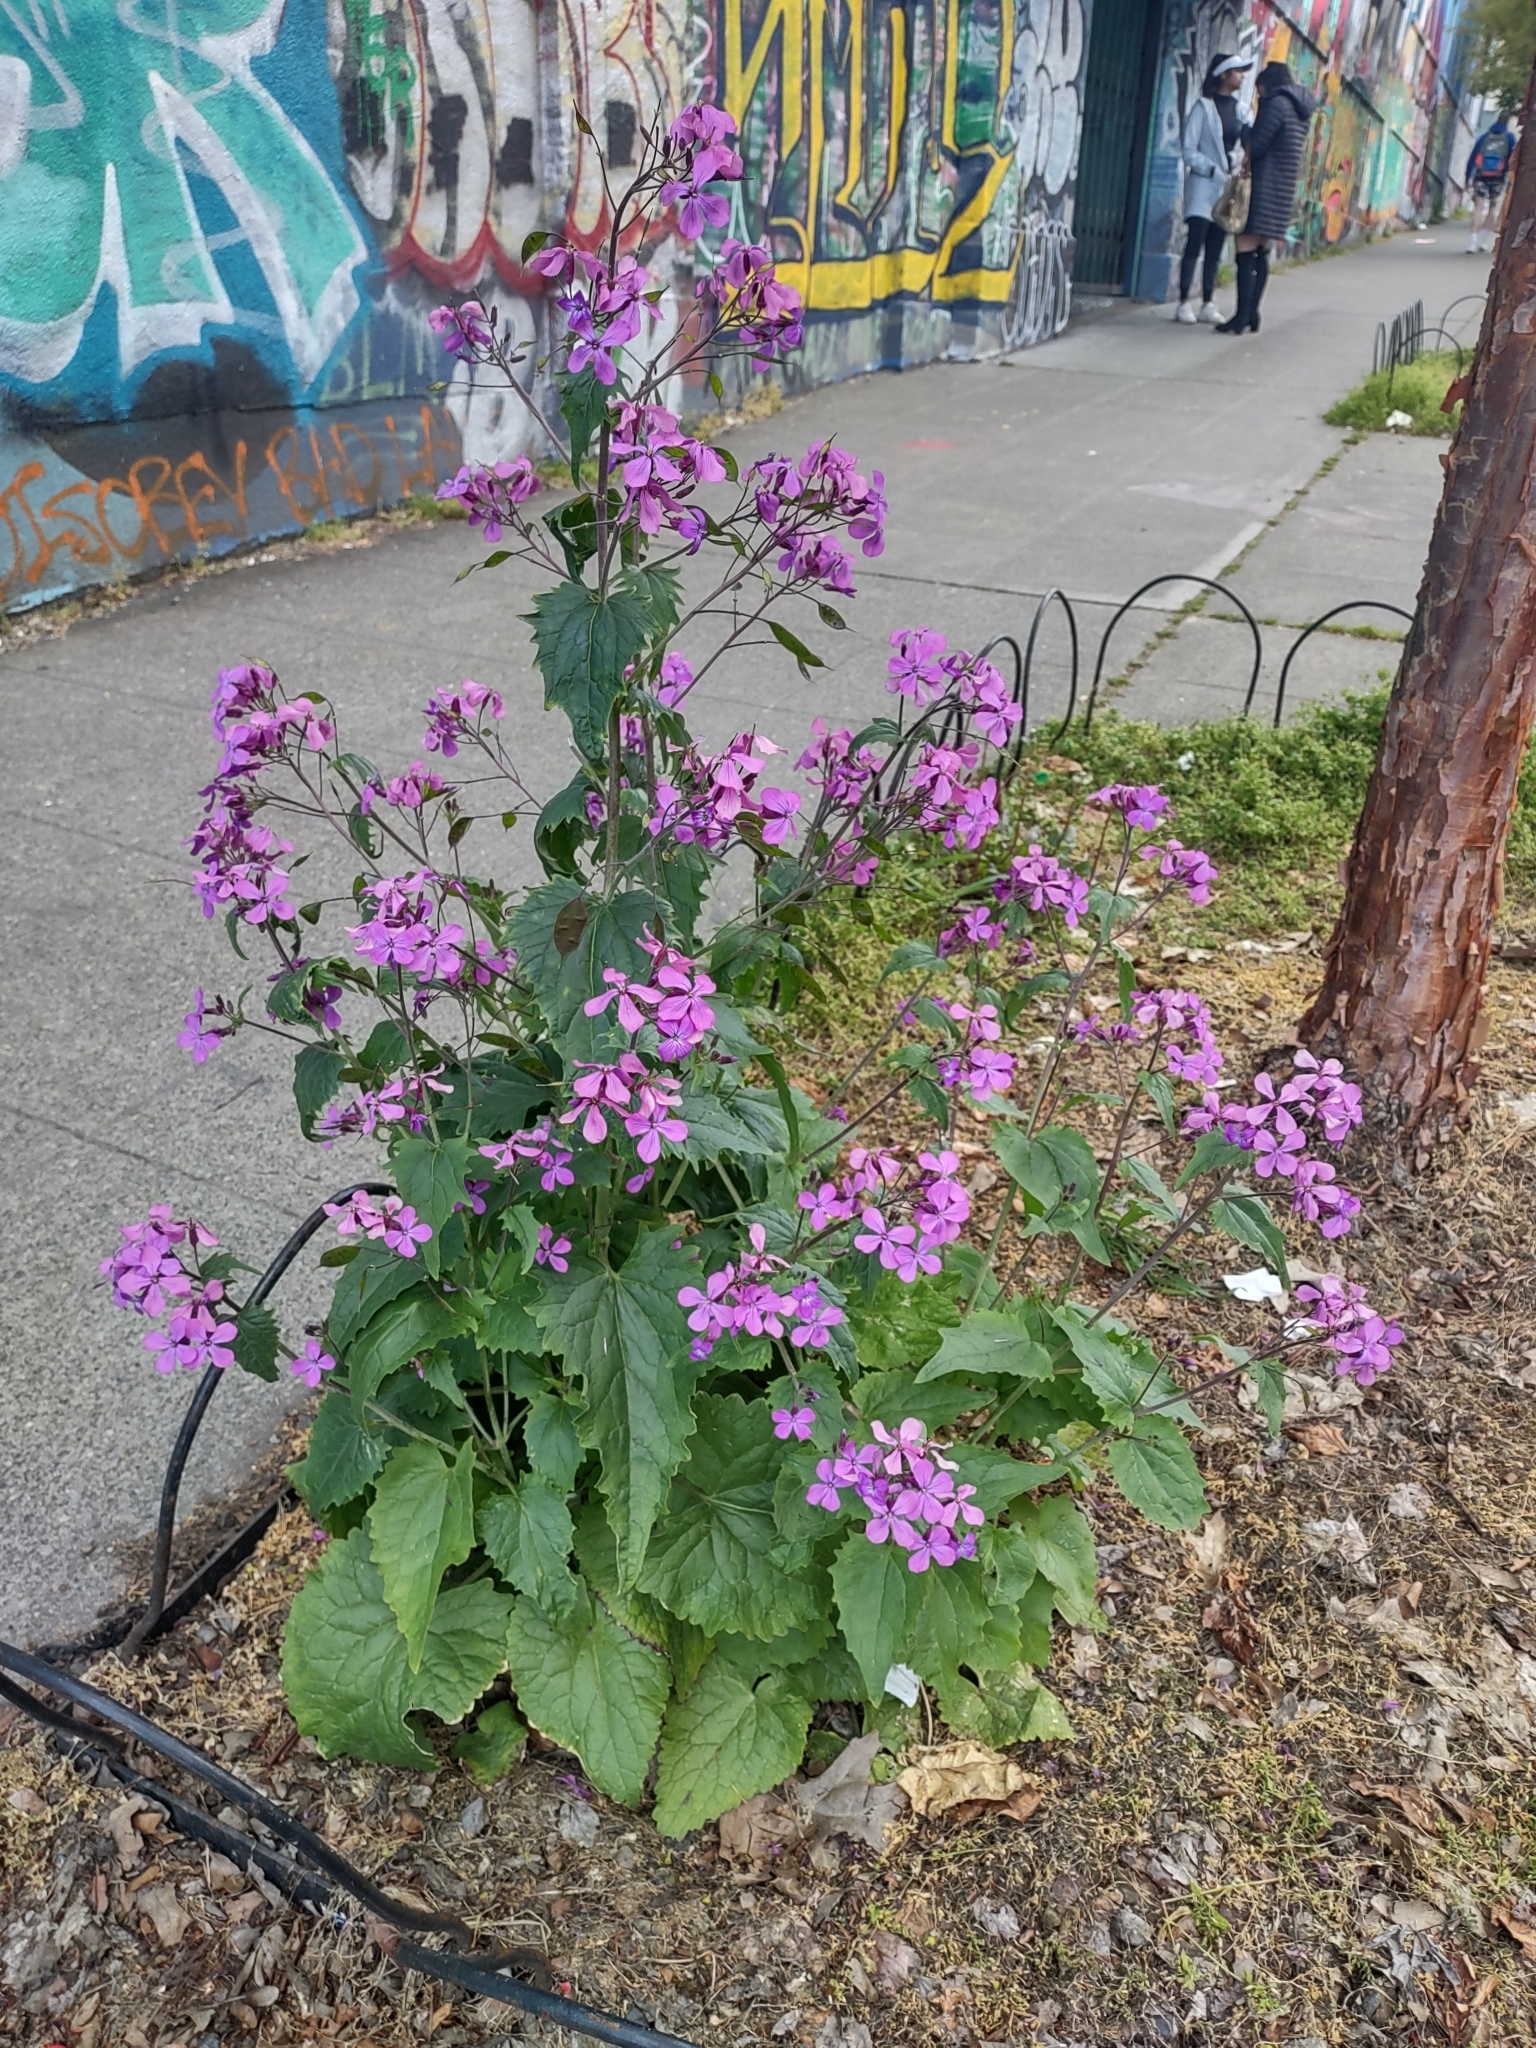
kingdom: Plantae
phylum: Tracheophyta
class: Magnoliopsida
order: Brassicales
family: Brassicaceae
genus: Lunaria
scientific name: Lunaria annua
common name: Honesty
